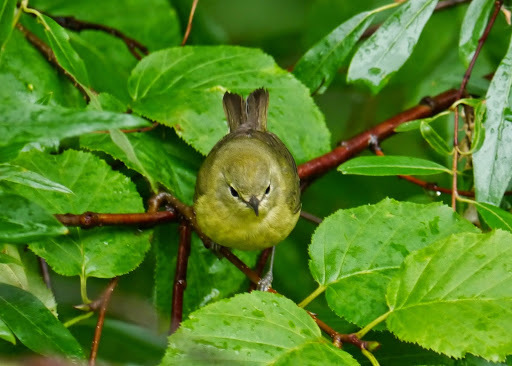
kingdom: Animalia
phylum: Chordata
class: Aves
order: Passeriformes
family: Parulidae
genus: Leiothlypis
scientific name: Leiothlypis celata
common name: Orange-crowned warbler
